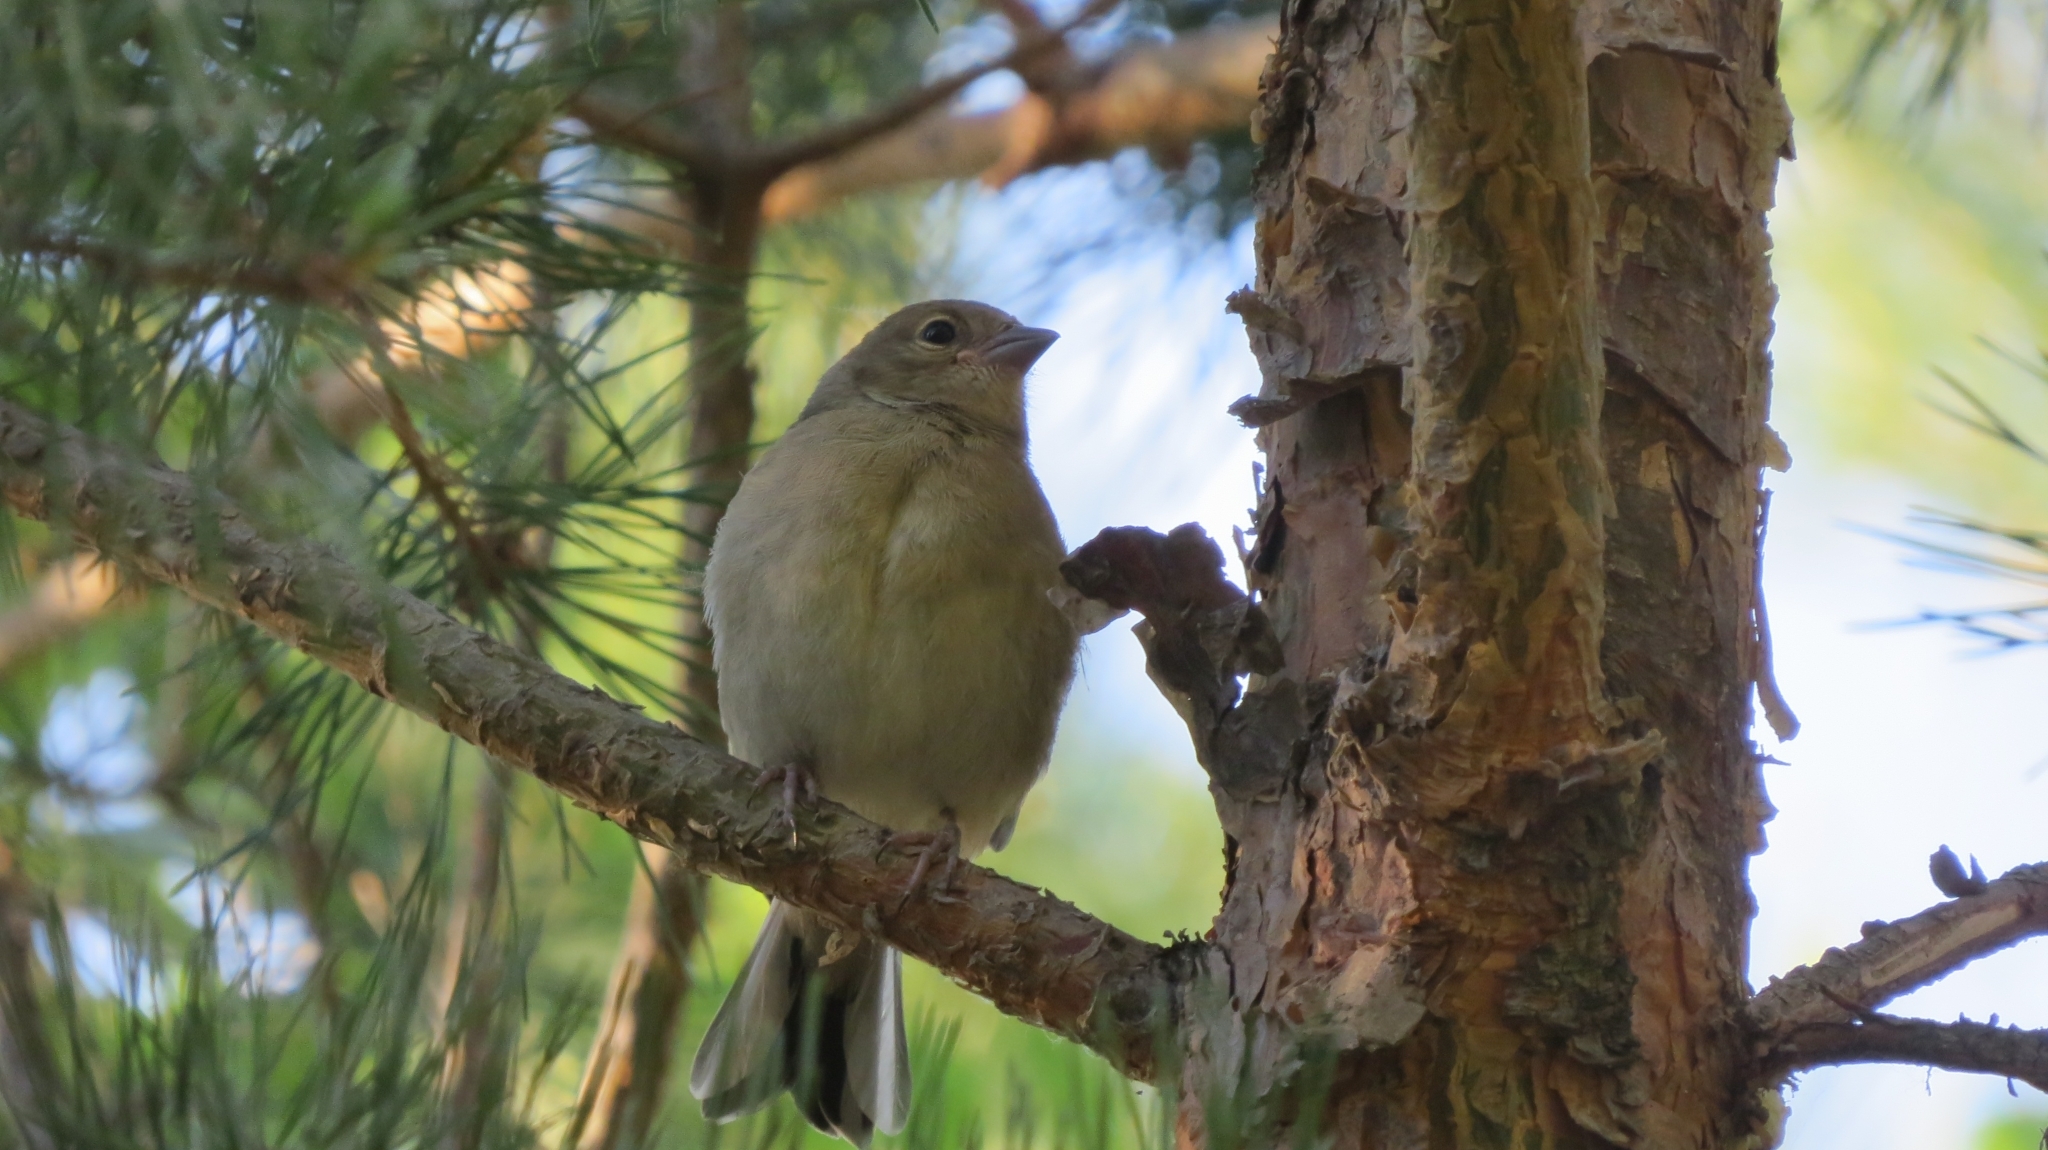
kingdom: Animalia
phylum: Chordata
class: Aves
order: Passeriformes
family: Fringillidae
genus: Fringilla
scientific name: Fringilla coelebs
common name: Common chaffinch
